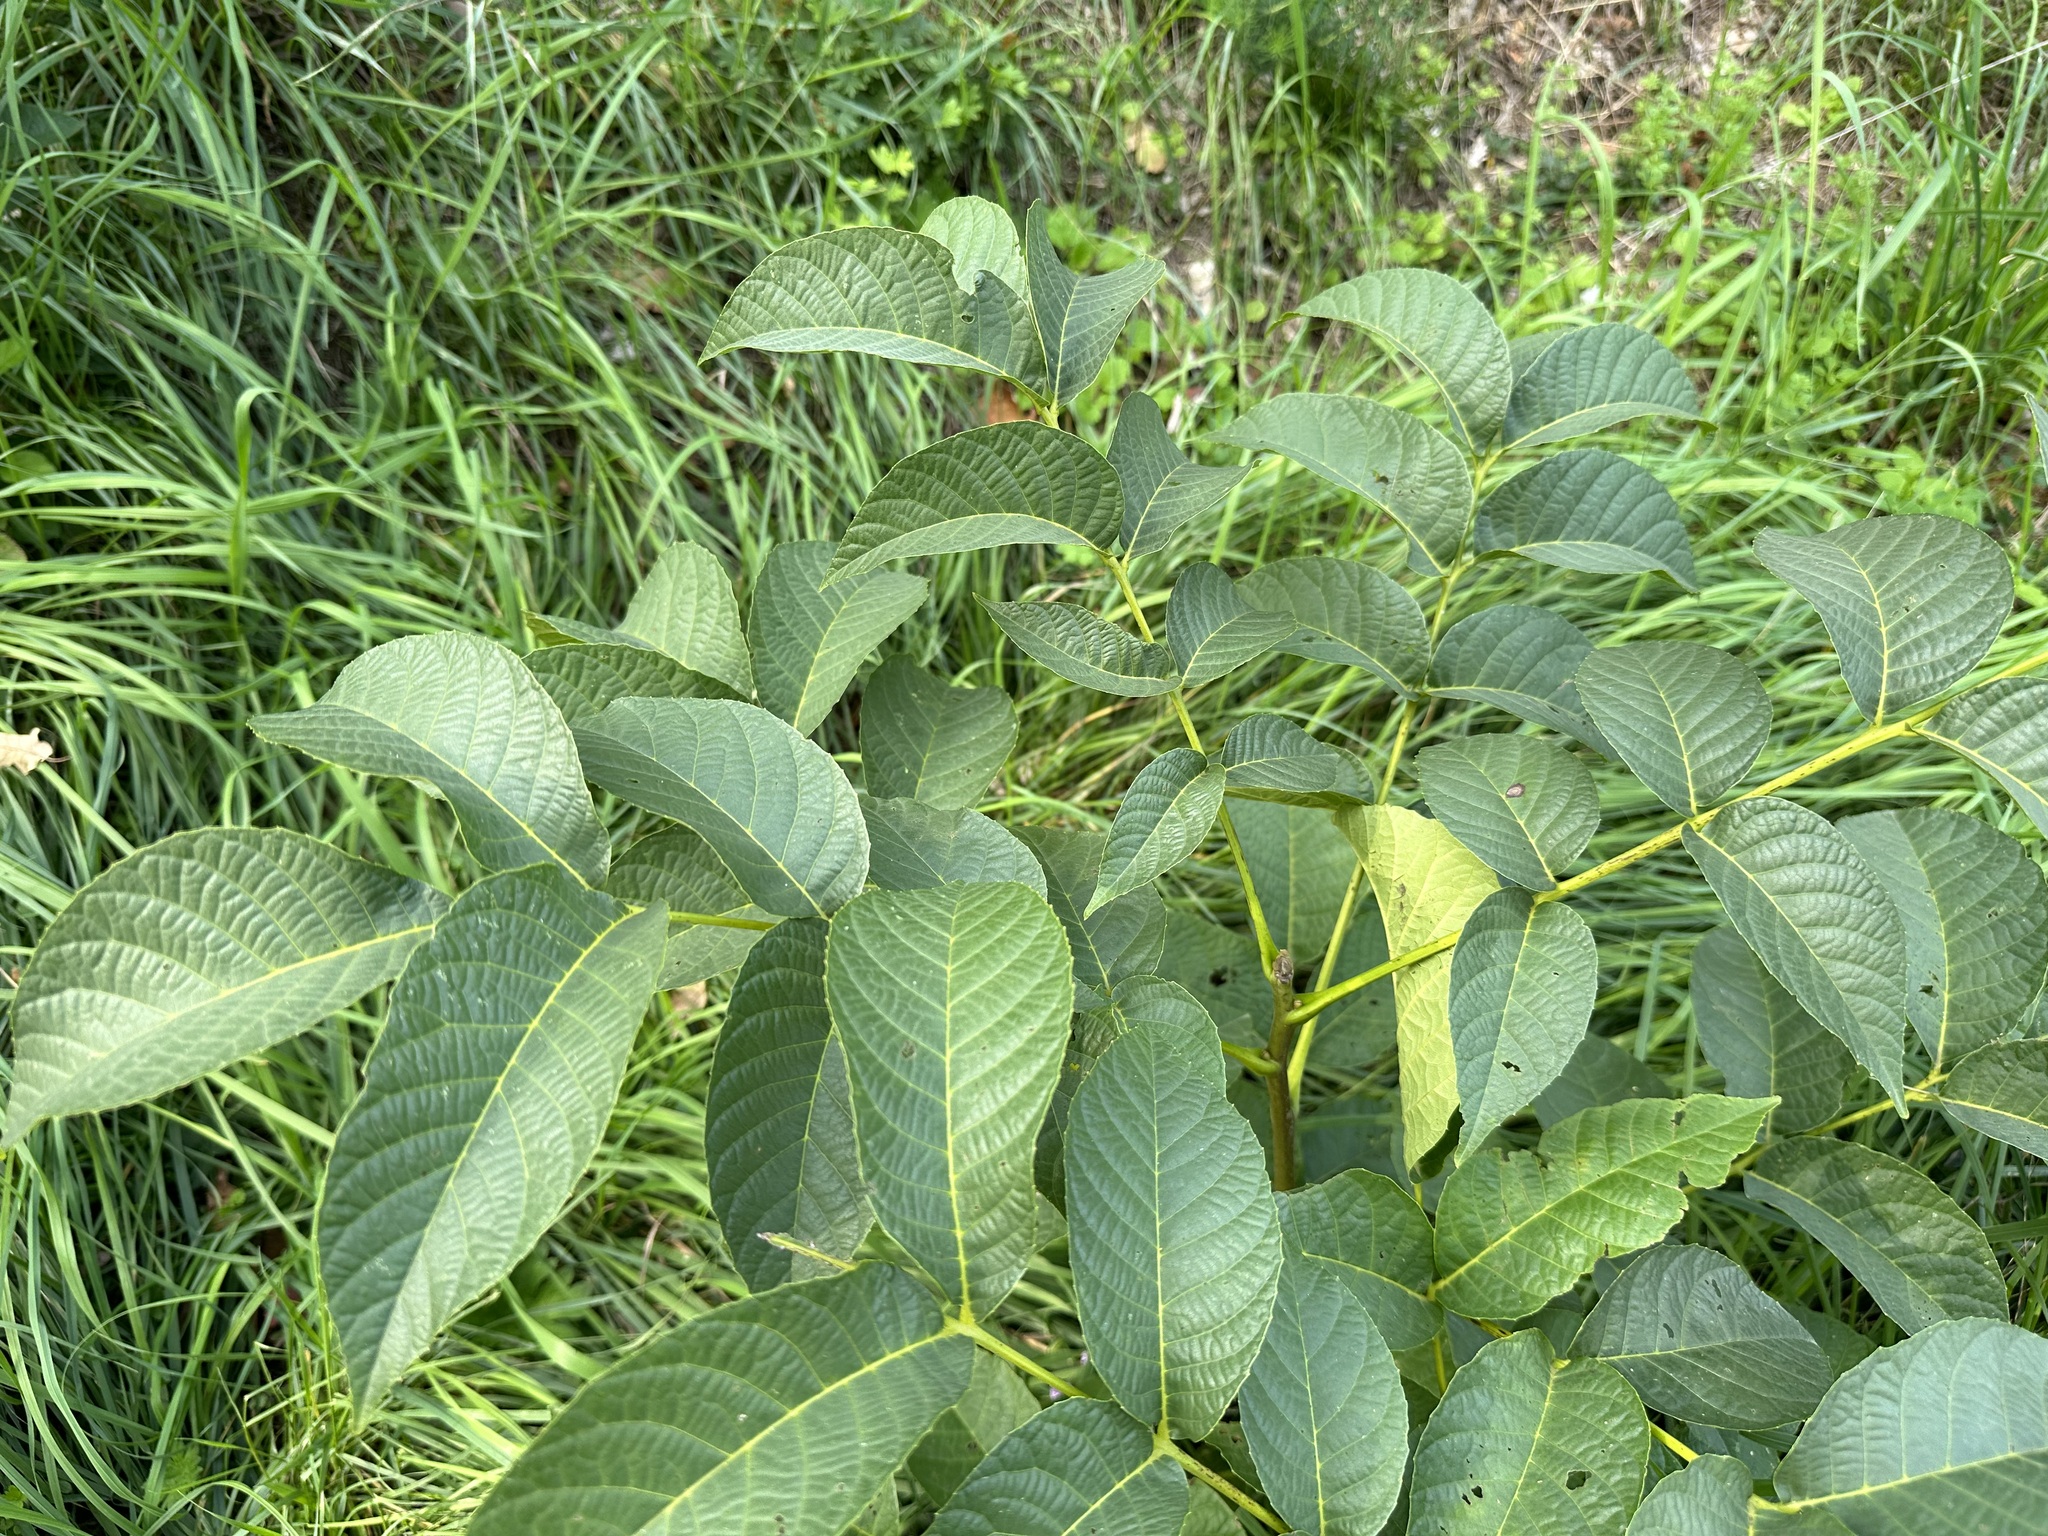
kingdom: Plantae
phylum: Tracheophyta
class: Magnoliopsida
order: Fagales
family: Juglandaceae
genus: Juglans
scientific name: Juglans regia
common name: Walnut
